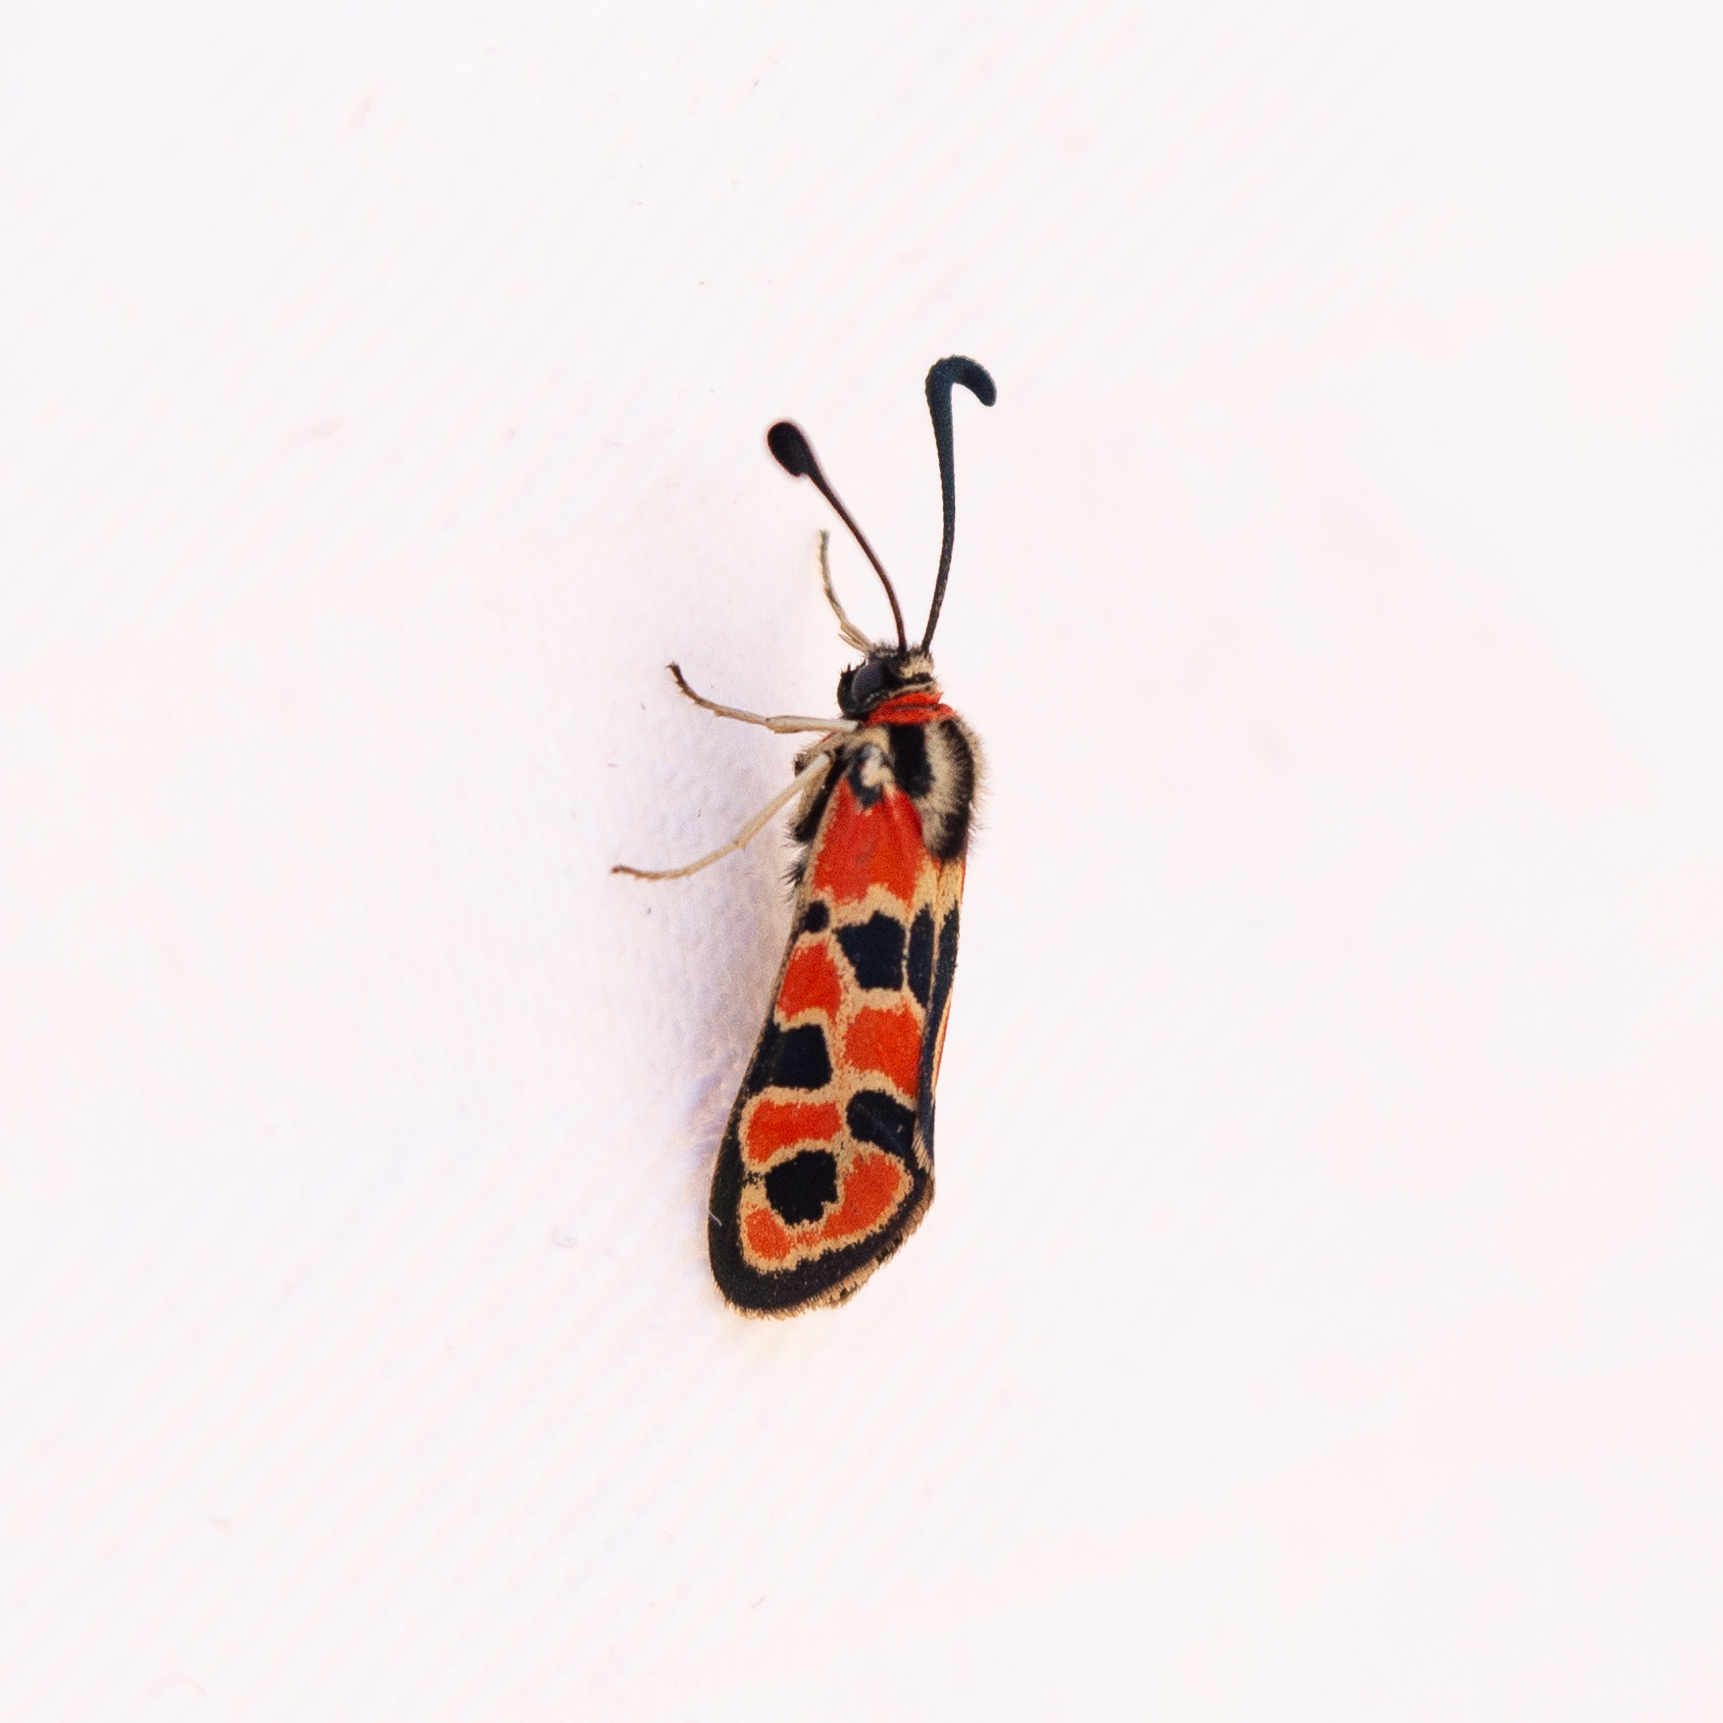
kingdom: Animalia
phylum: Arthropoda
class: Insecta
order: Lepidoptera
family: Zygaenidae
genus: Zygaena
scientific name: Zygaena fausta
